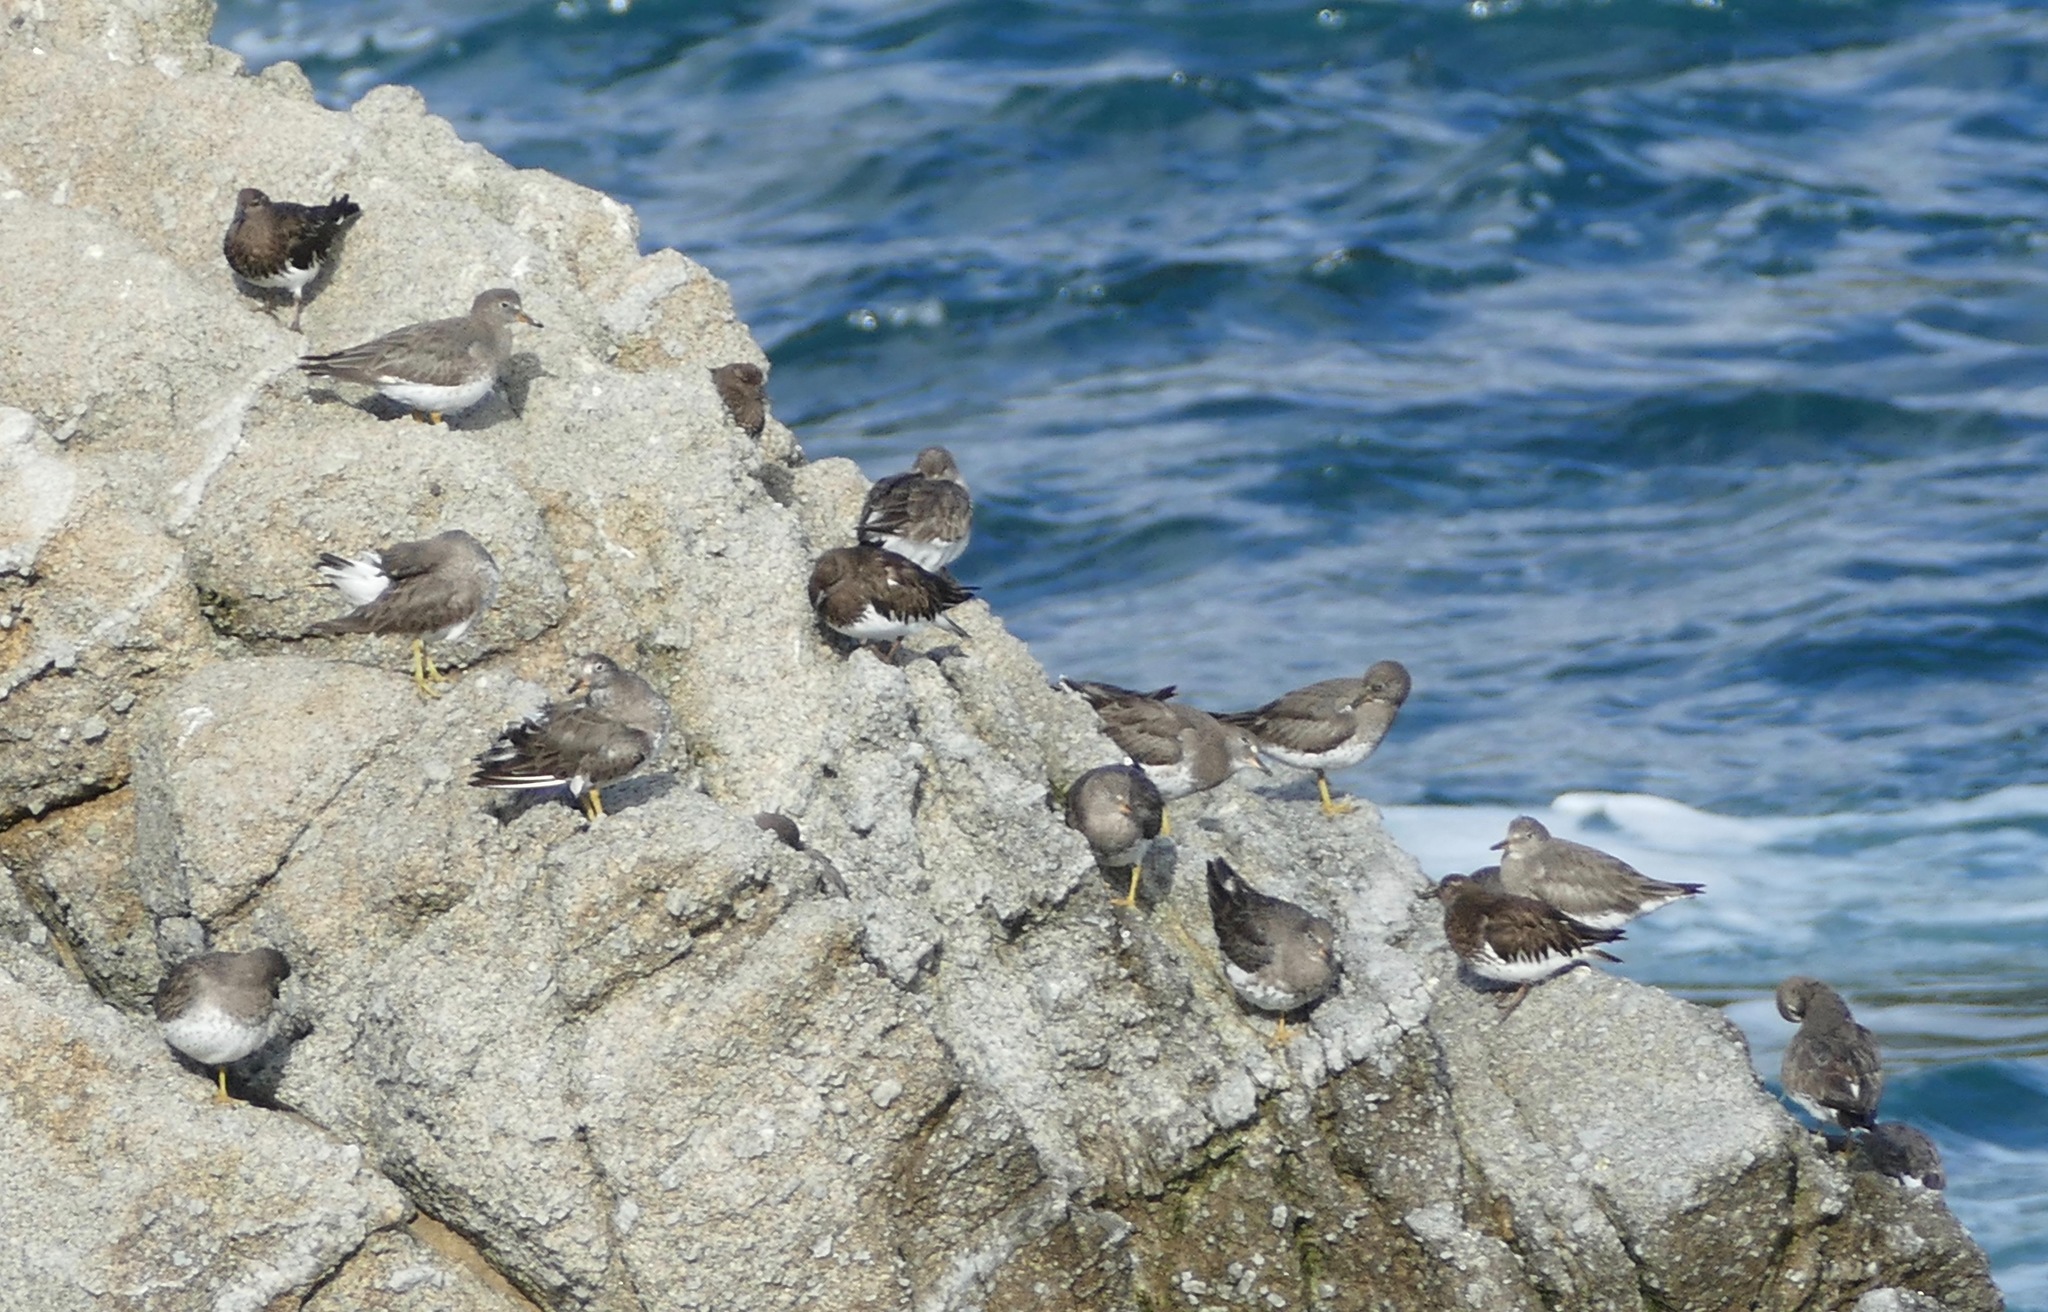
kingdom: Animalia
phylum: Chordata
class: Aves
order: Charadriiformes
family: Scolopacidae
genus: Calidris
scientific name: Calidris virgata
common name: Surfbird
